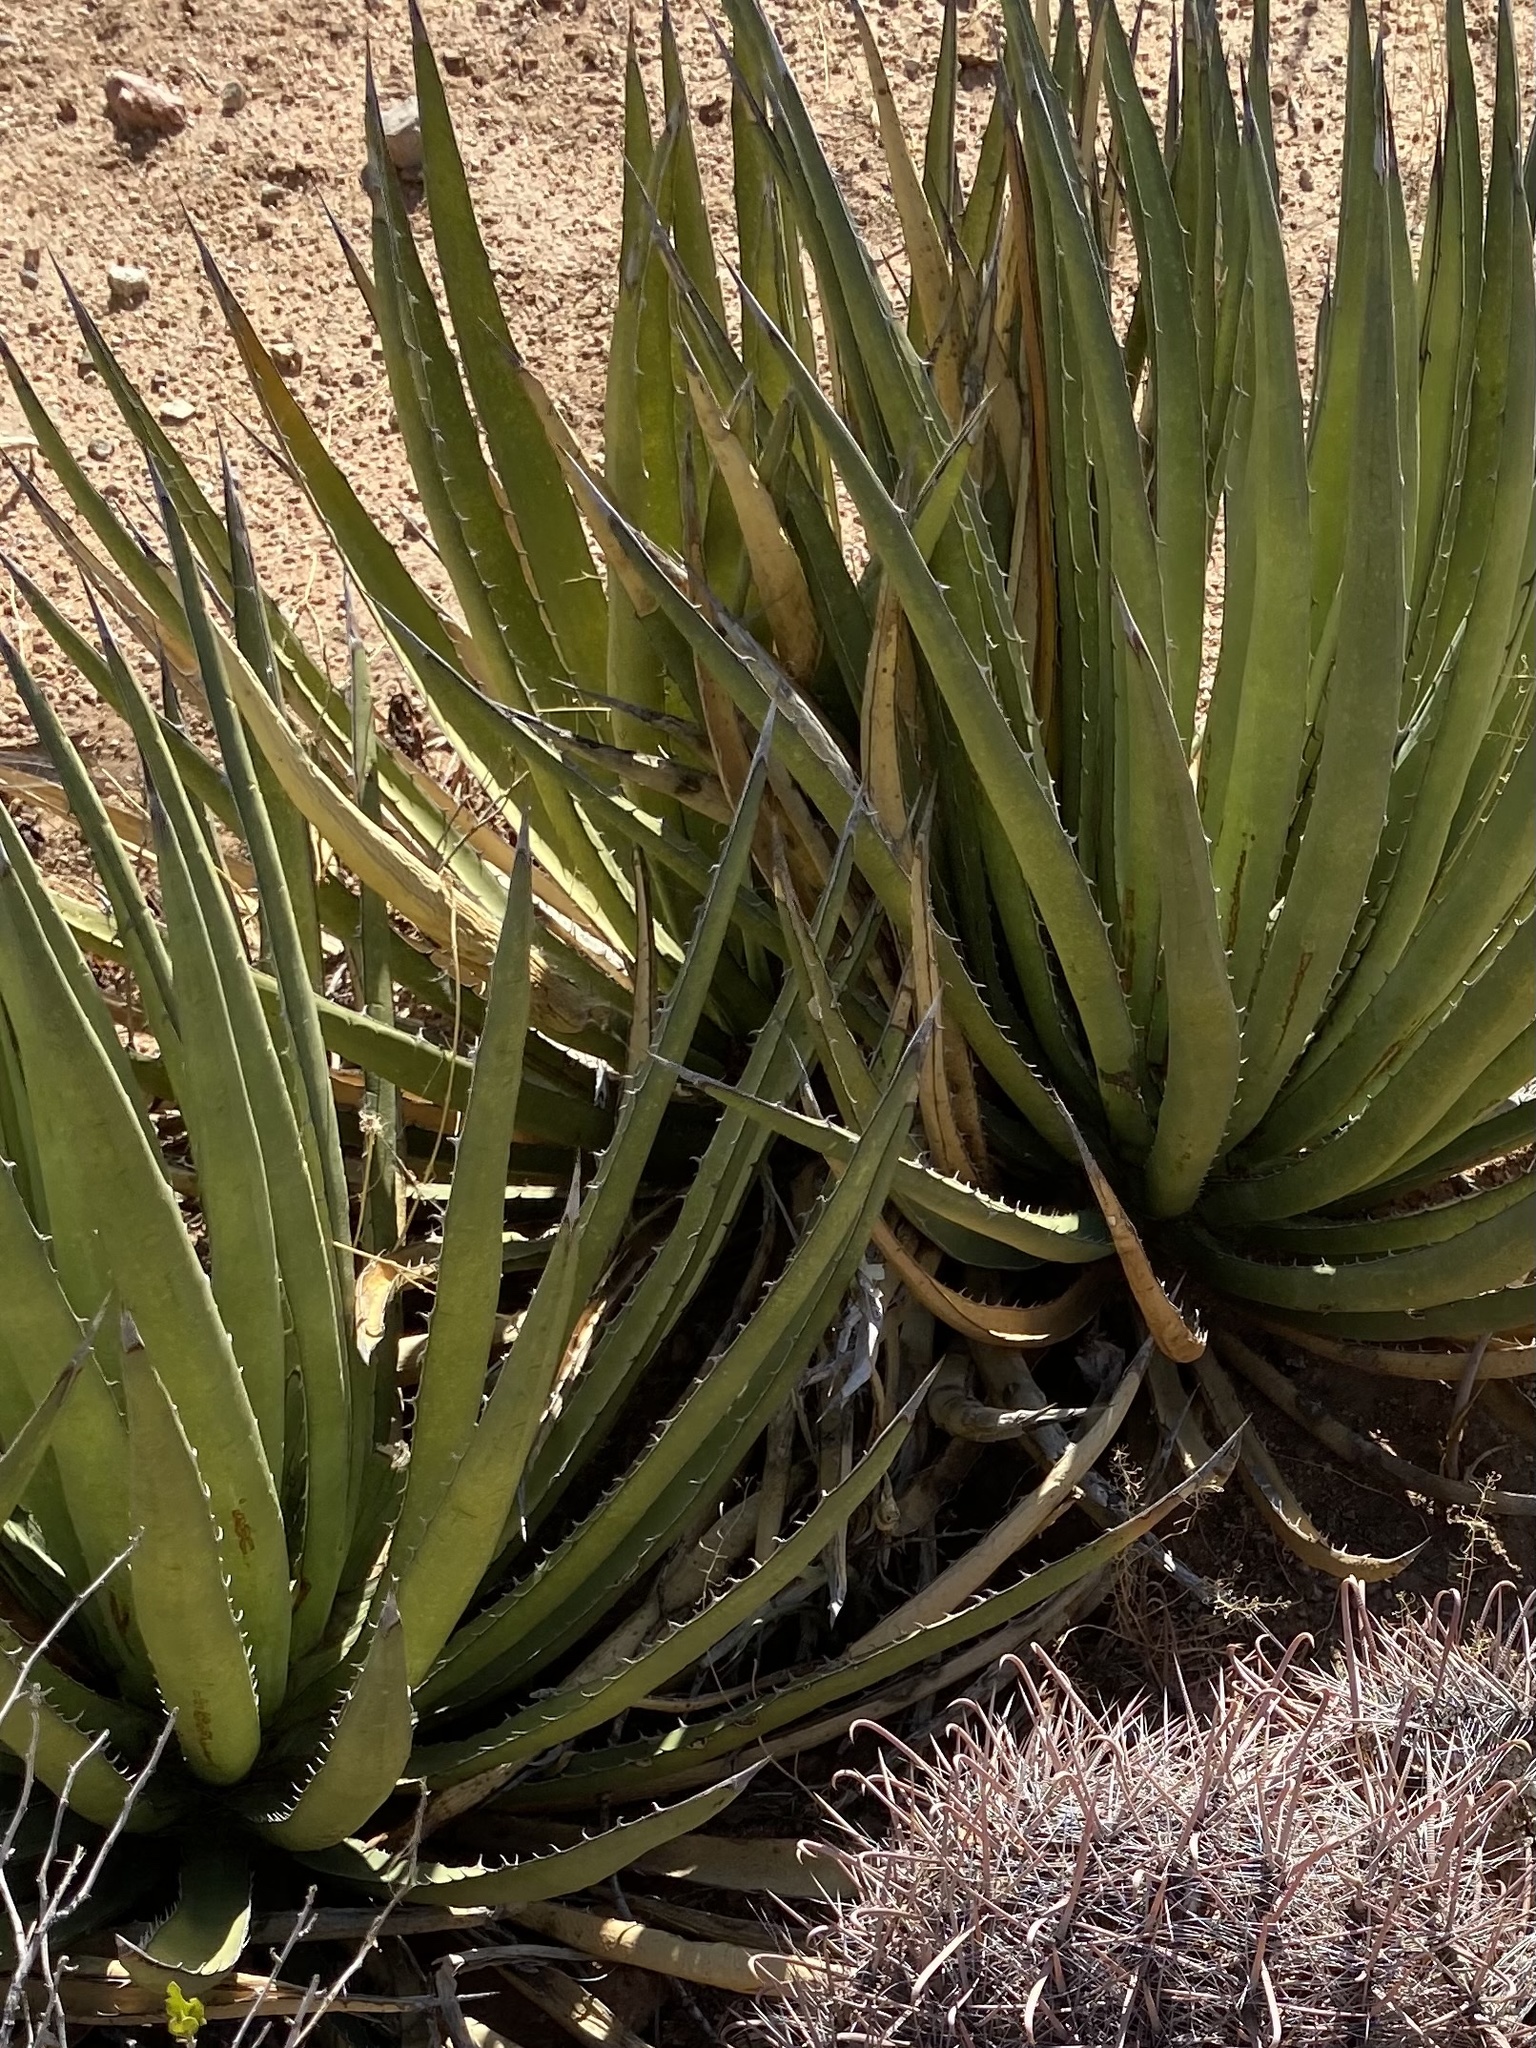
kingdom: Plantae
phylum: Tracheophyta
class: Liliopsida
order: Asparagales
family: Asparagaceae
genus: Agave
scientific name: Agave lechuguilla
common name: Lecheguilla agave
